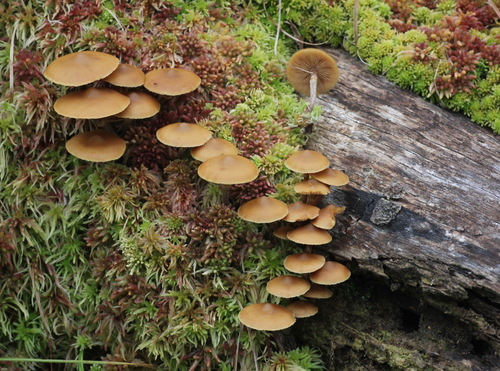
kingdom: Fungi
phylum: Basidiomycota
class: Agaricomycetes
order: Agaricales
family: Strophariaceae
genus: Pholiota
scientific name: Pholiota lignicola
